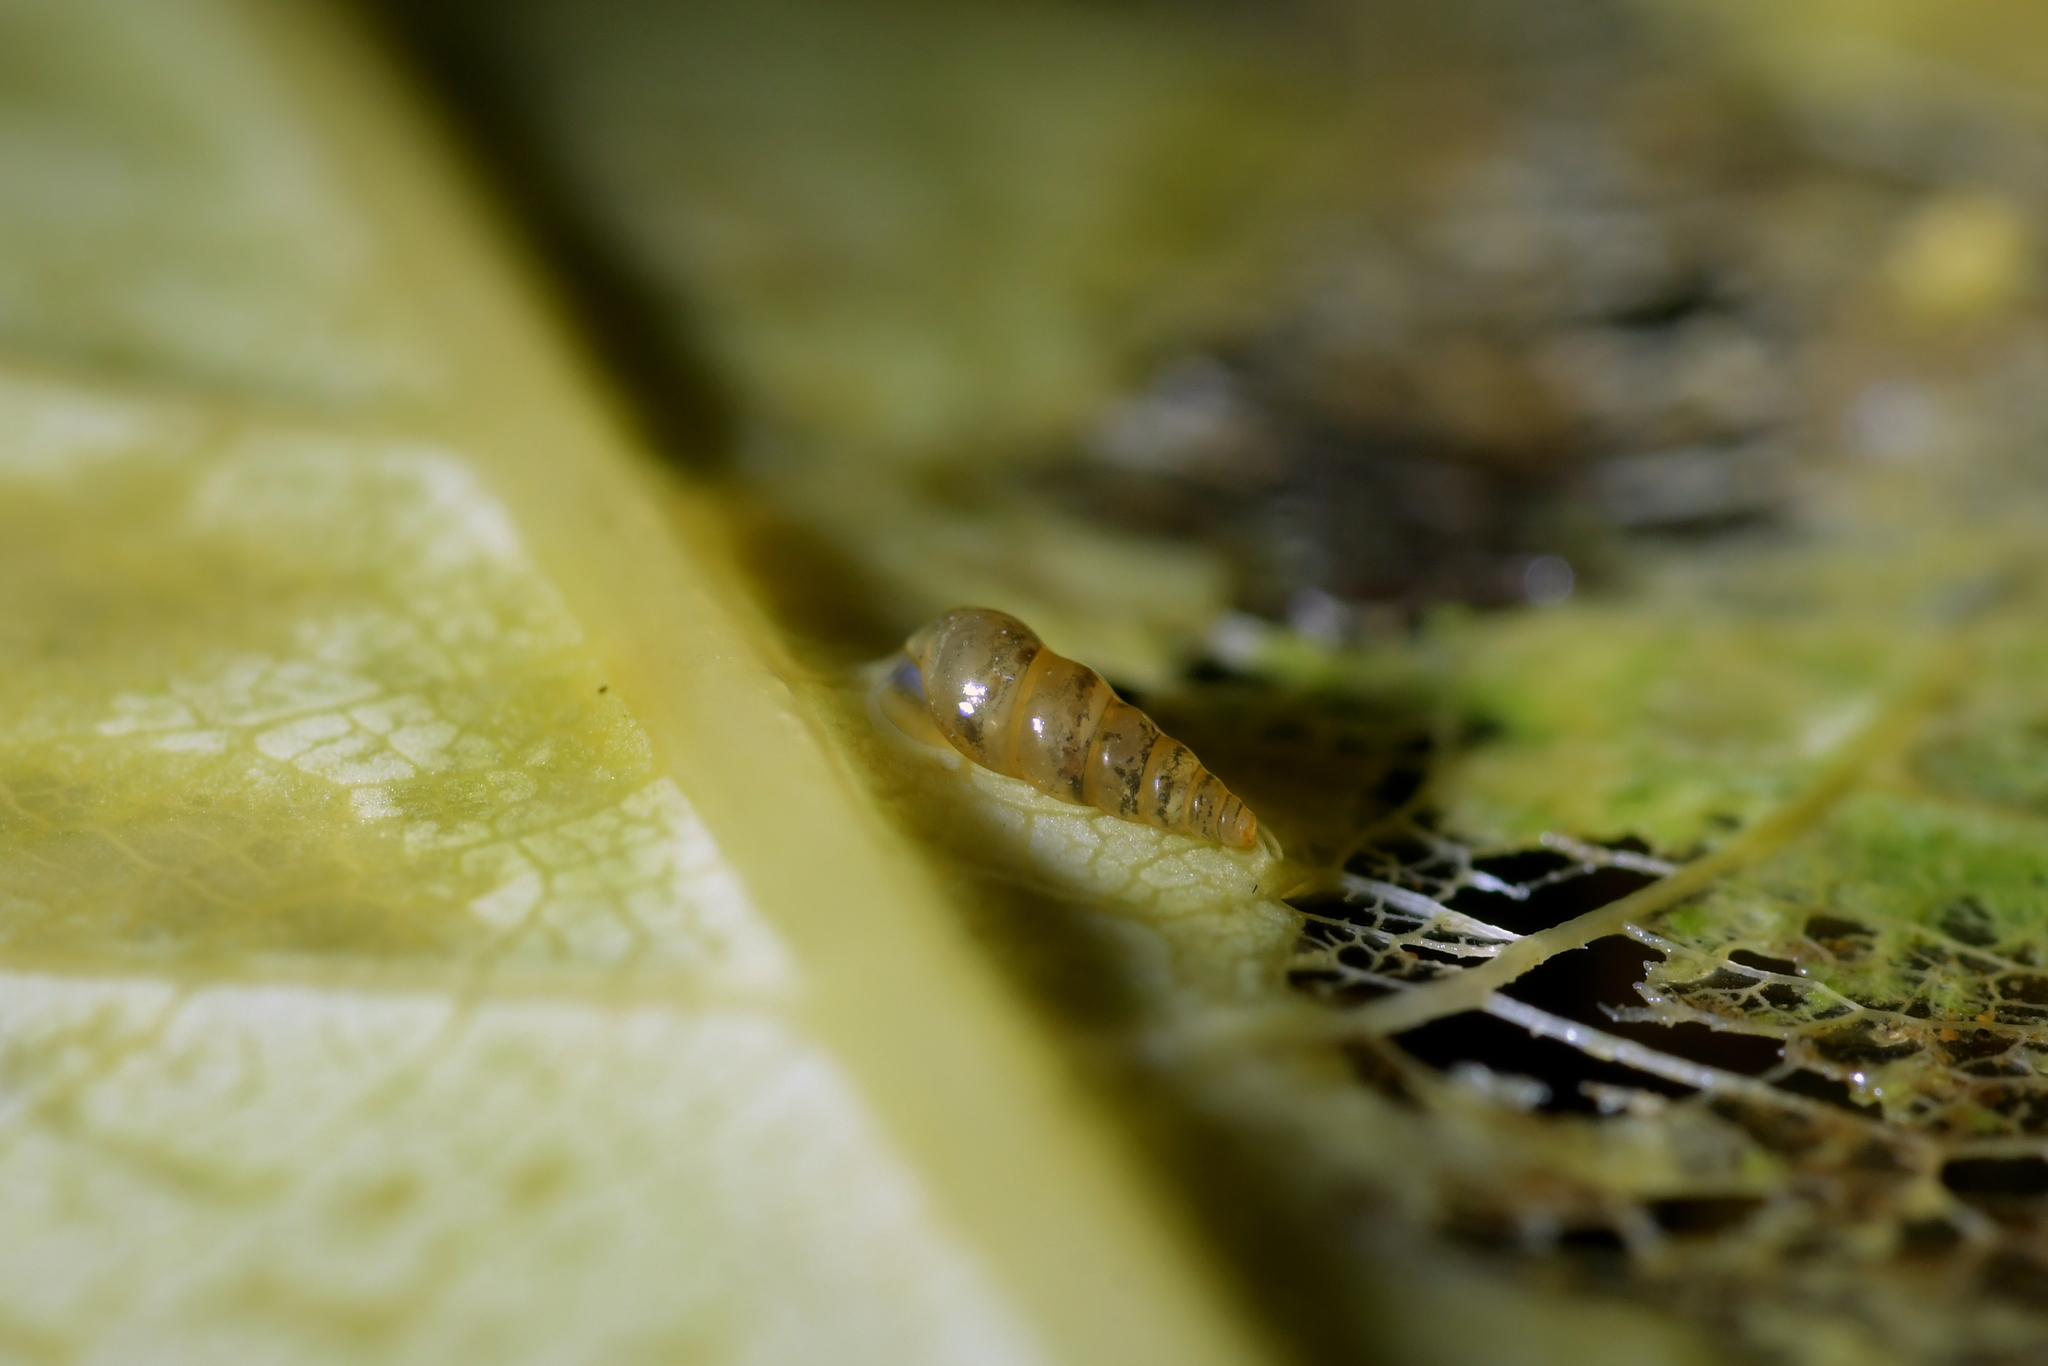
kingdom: Animalia
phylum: Mollusca
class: Gastropoda
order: Littorinimorpha
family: Tateidae
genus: Potamopyrgus
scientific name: Potamopyrgus oppidanus
